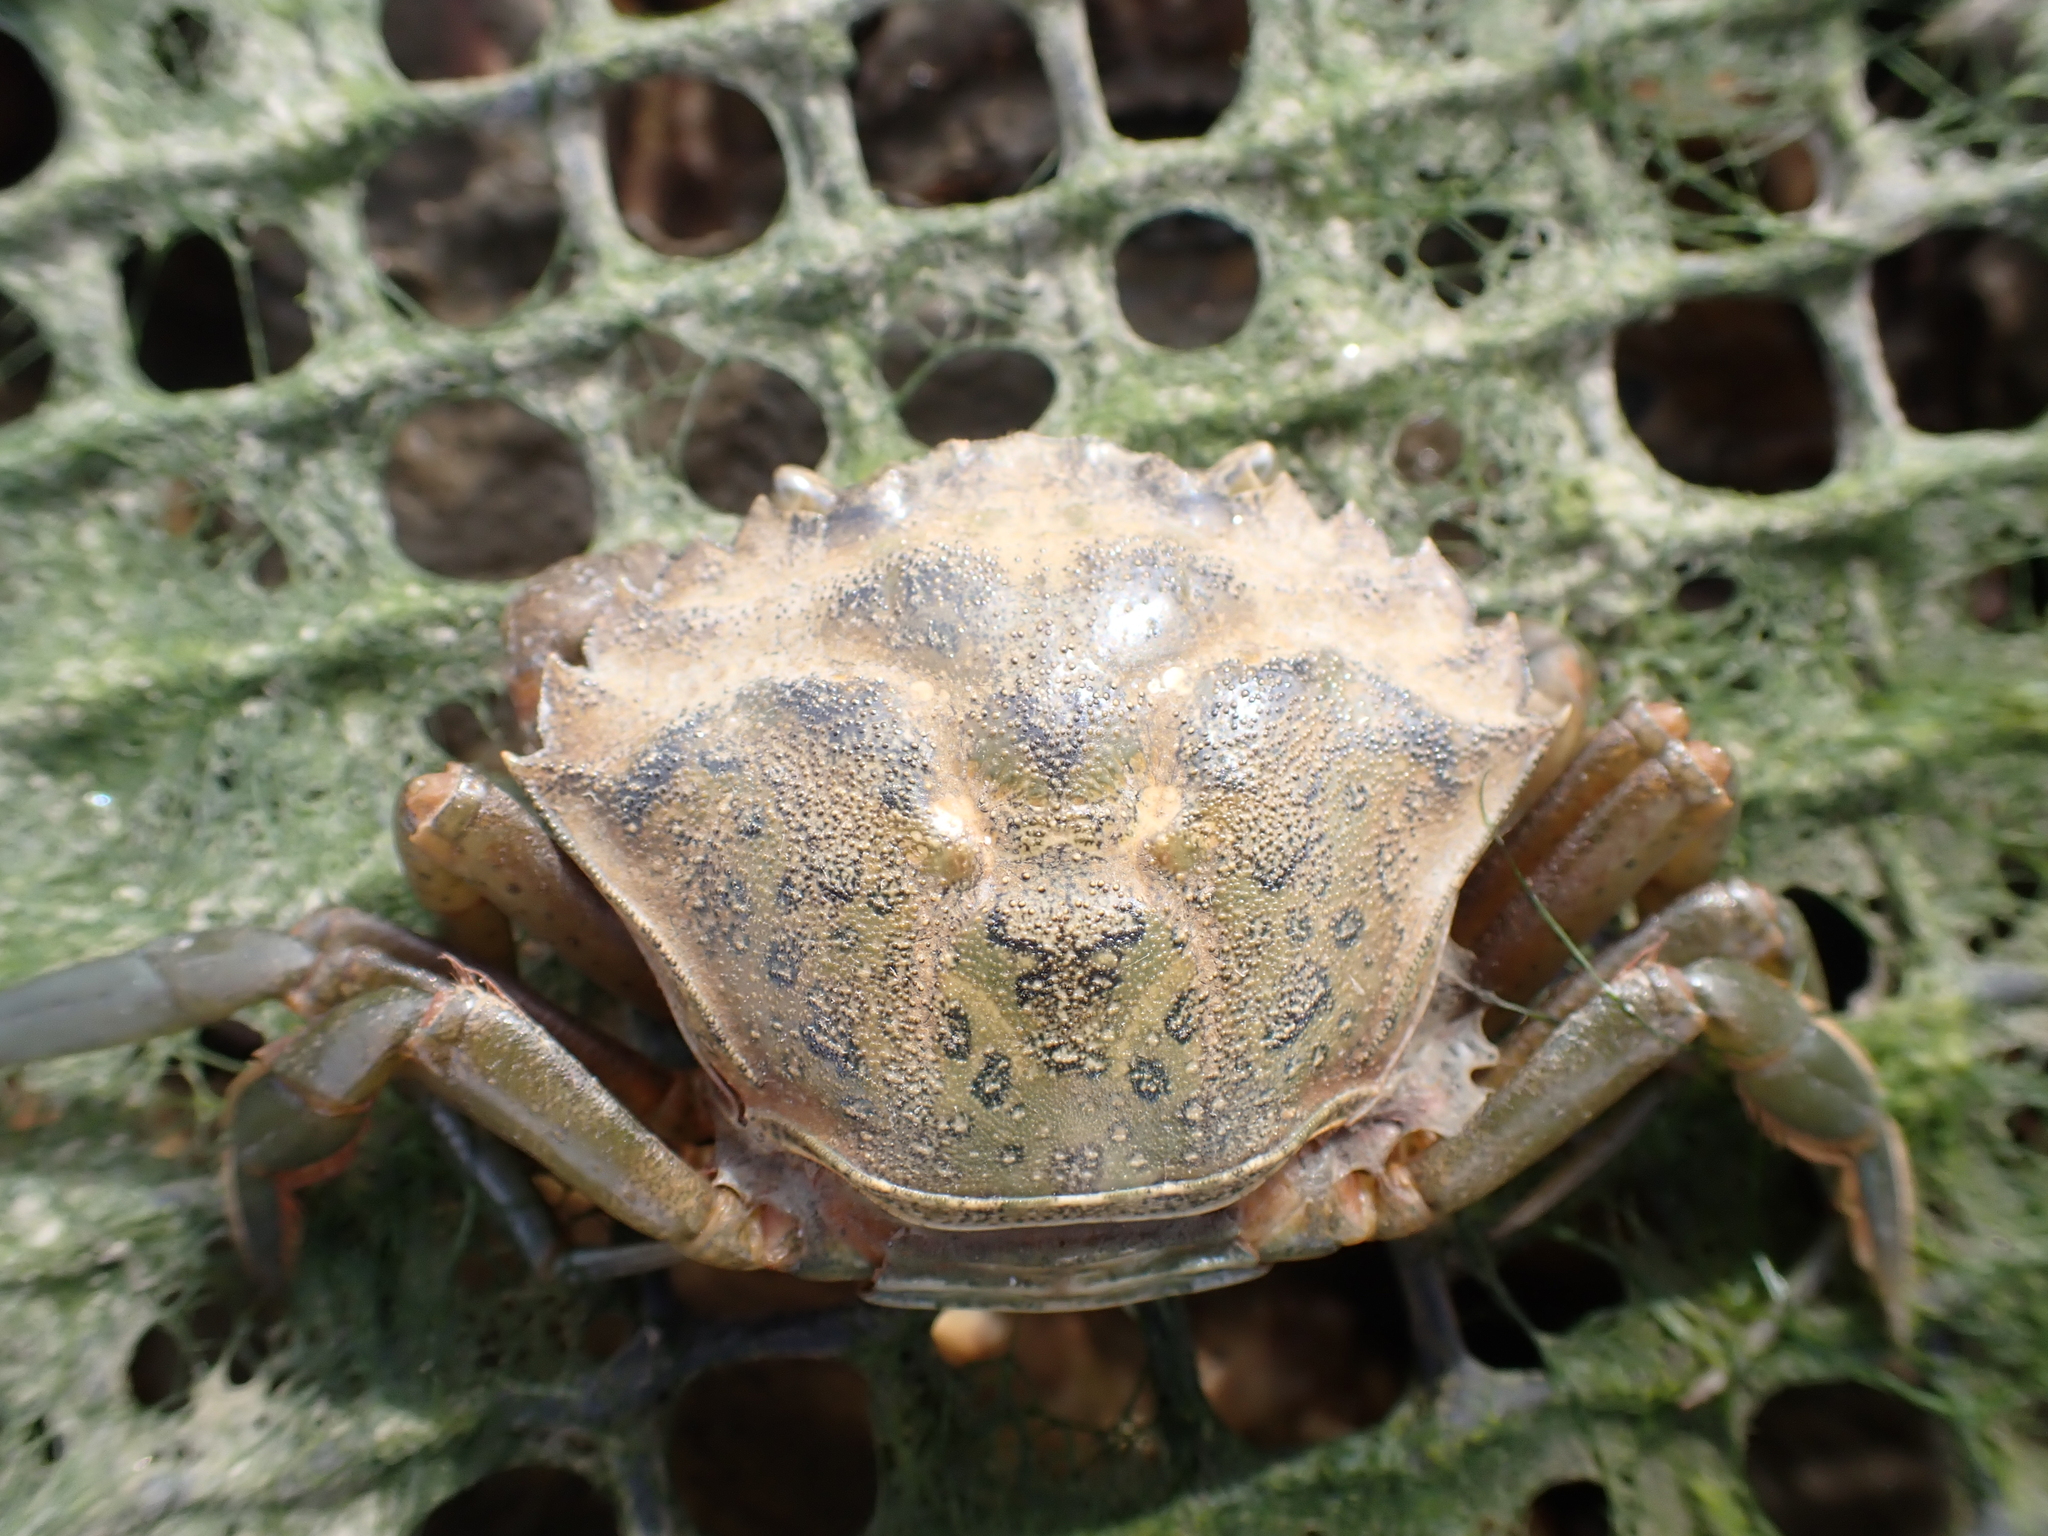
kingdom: Animalia
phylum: Arthropoda
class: Malacostraca
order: Decapoda
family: Carcinidae
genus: Carcinus
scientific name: Carcinus maenas
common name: European green crab
